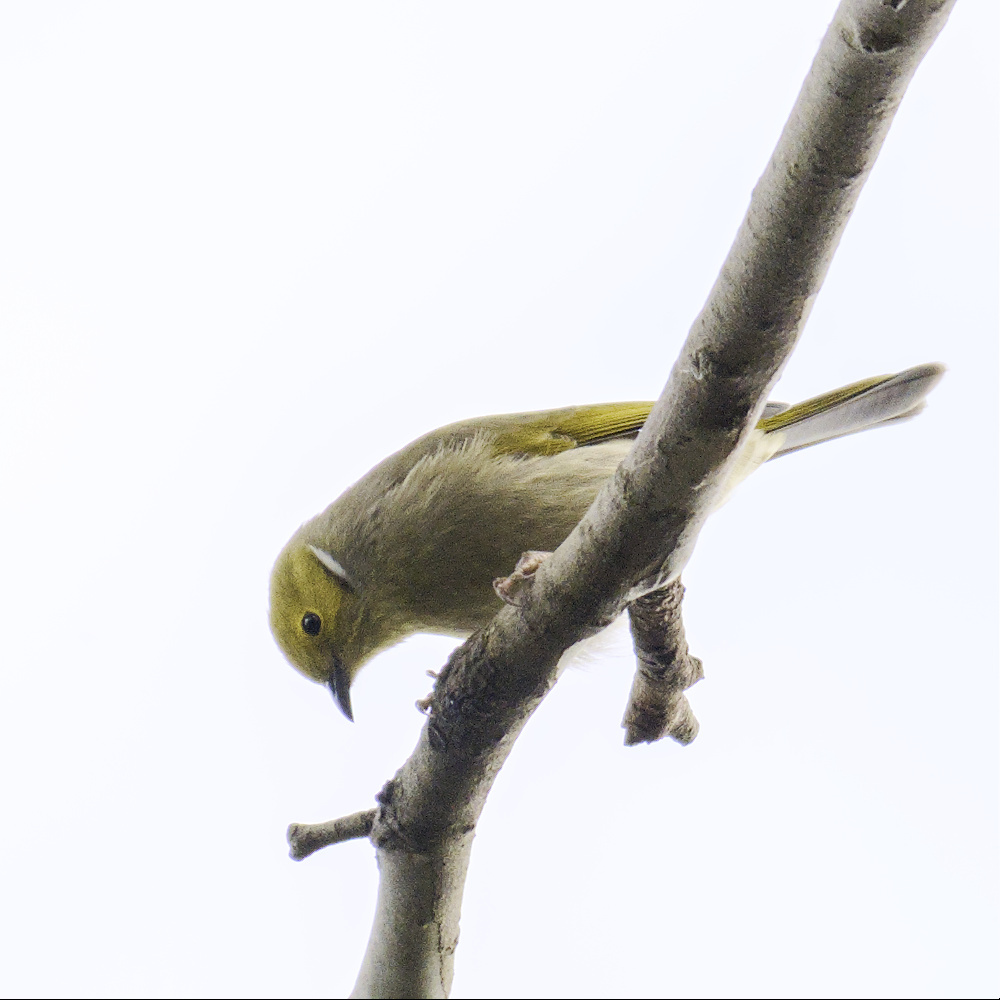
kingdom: Animalia
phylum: Chordata
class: Aves
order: Passeriformes
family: Meliphagidae
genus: Ptilotula
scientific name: Ptilotula penicillata
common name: White-plumed honeyeater
